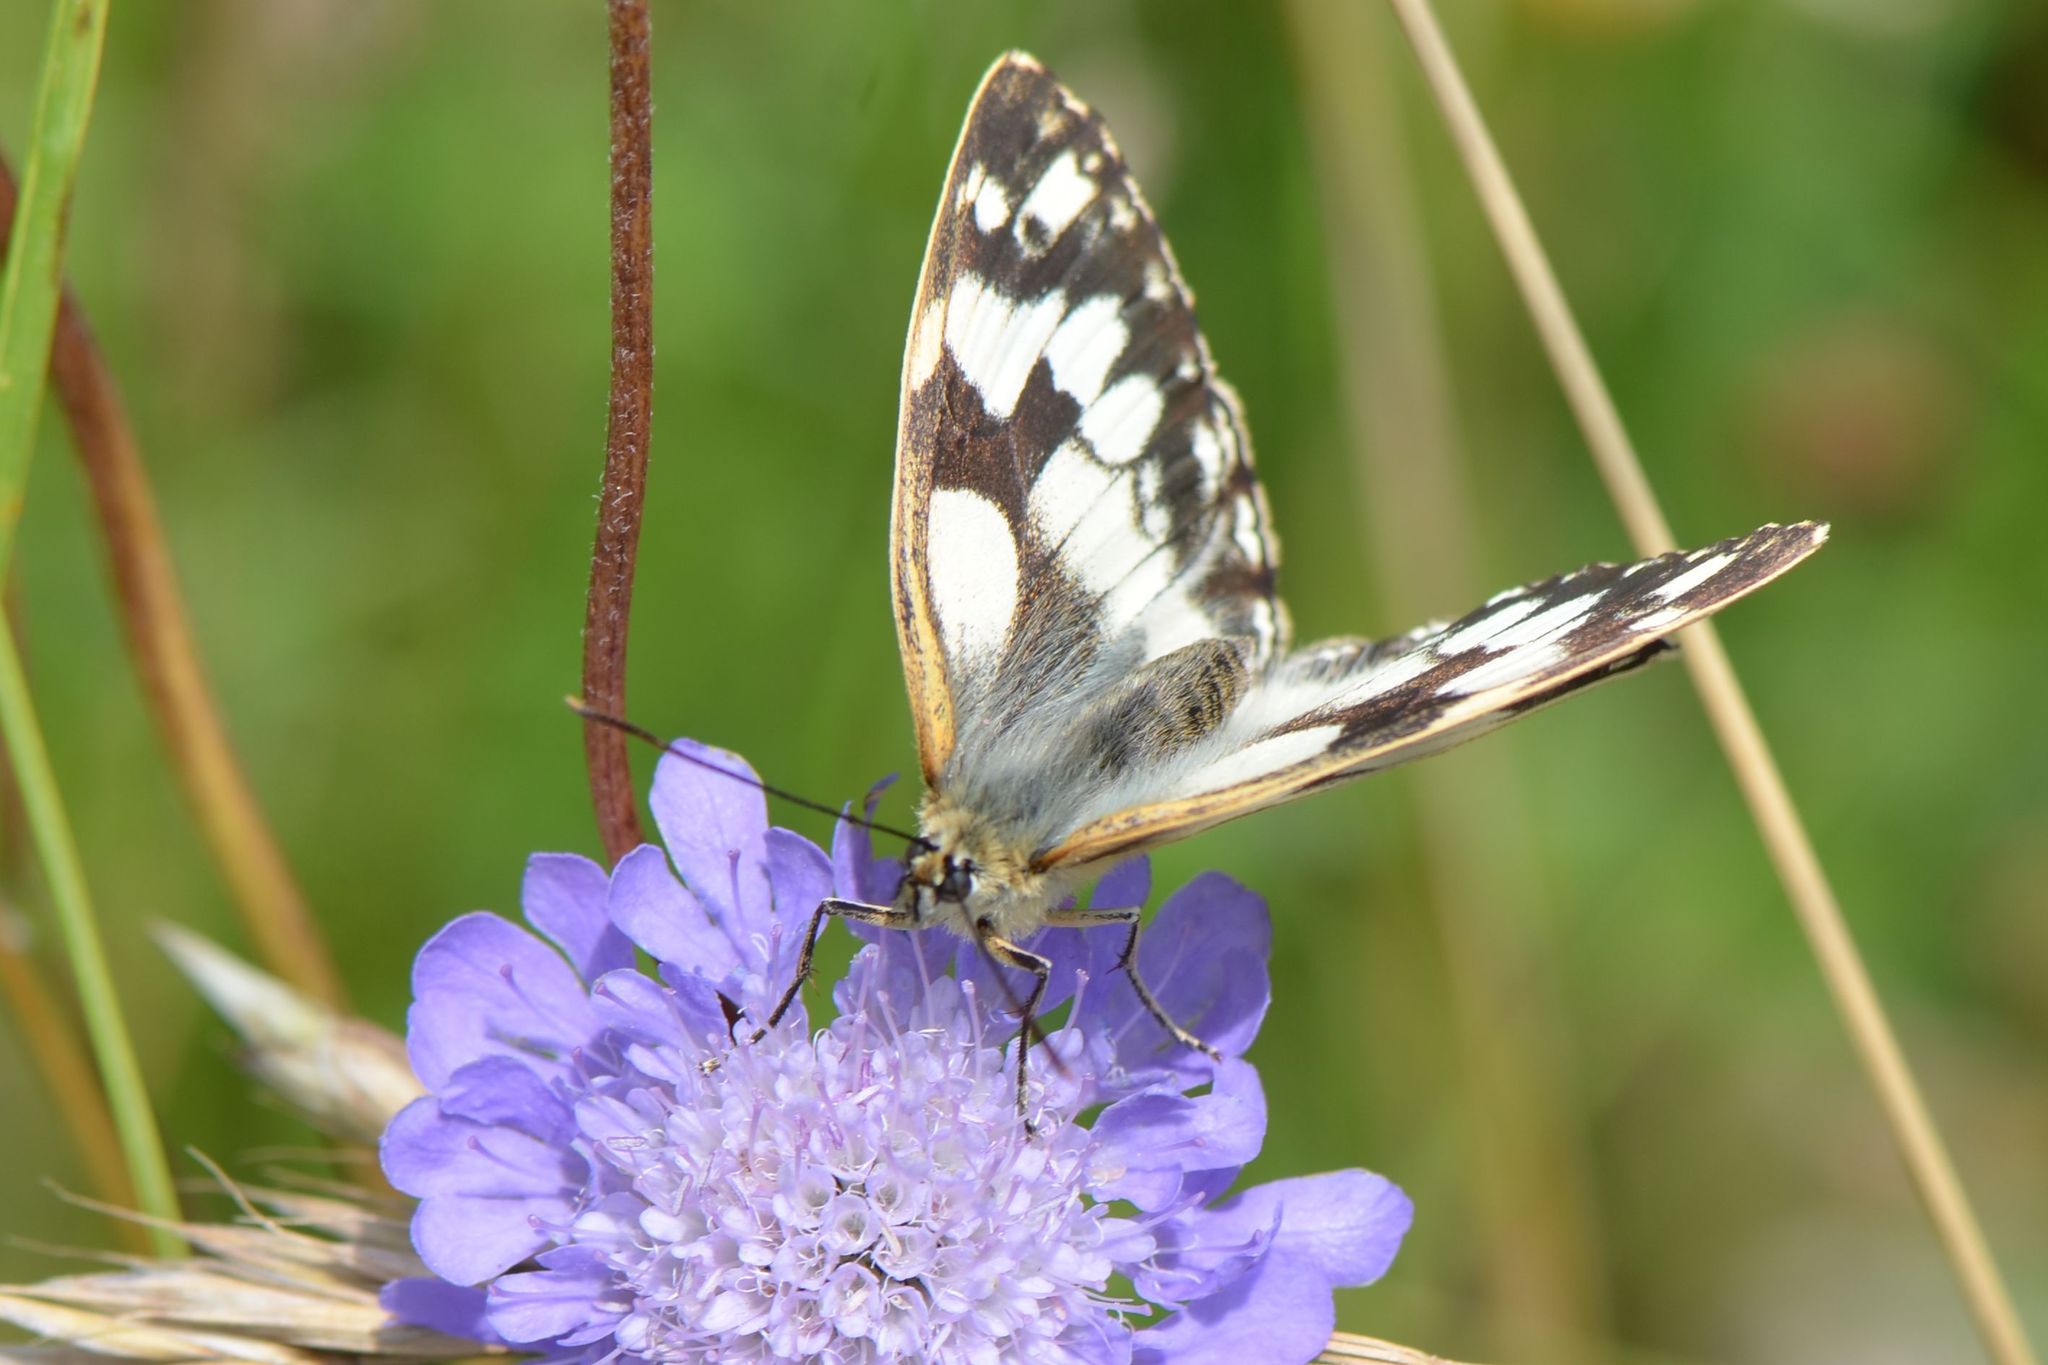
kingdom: Animalia
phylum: Arthropoda
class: Insecta
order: Lepidoptera
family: Nymphalidae
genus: Melanargia
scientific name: Melanargia galathea
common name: Marbled white
